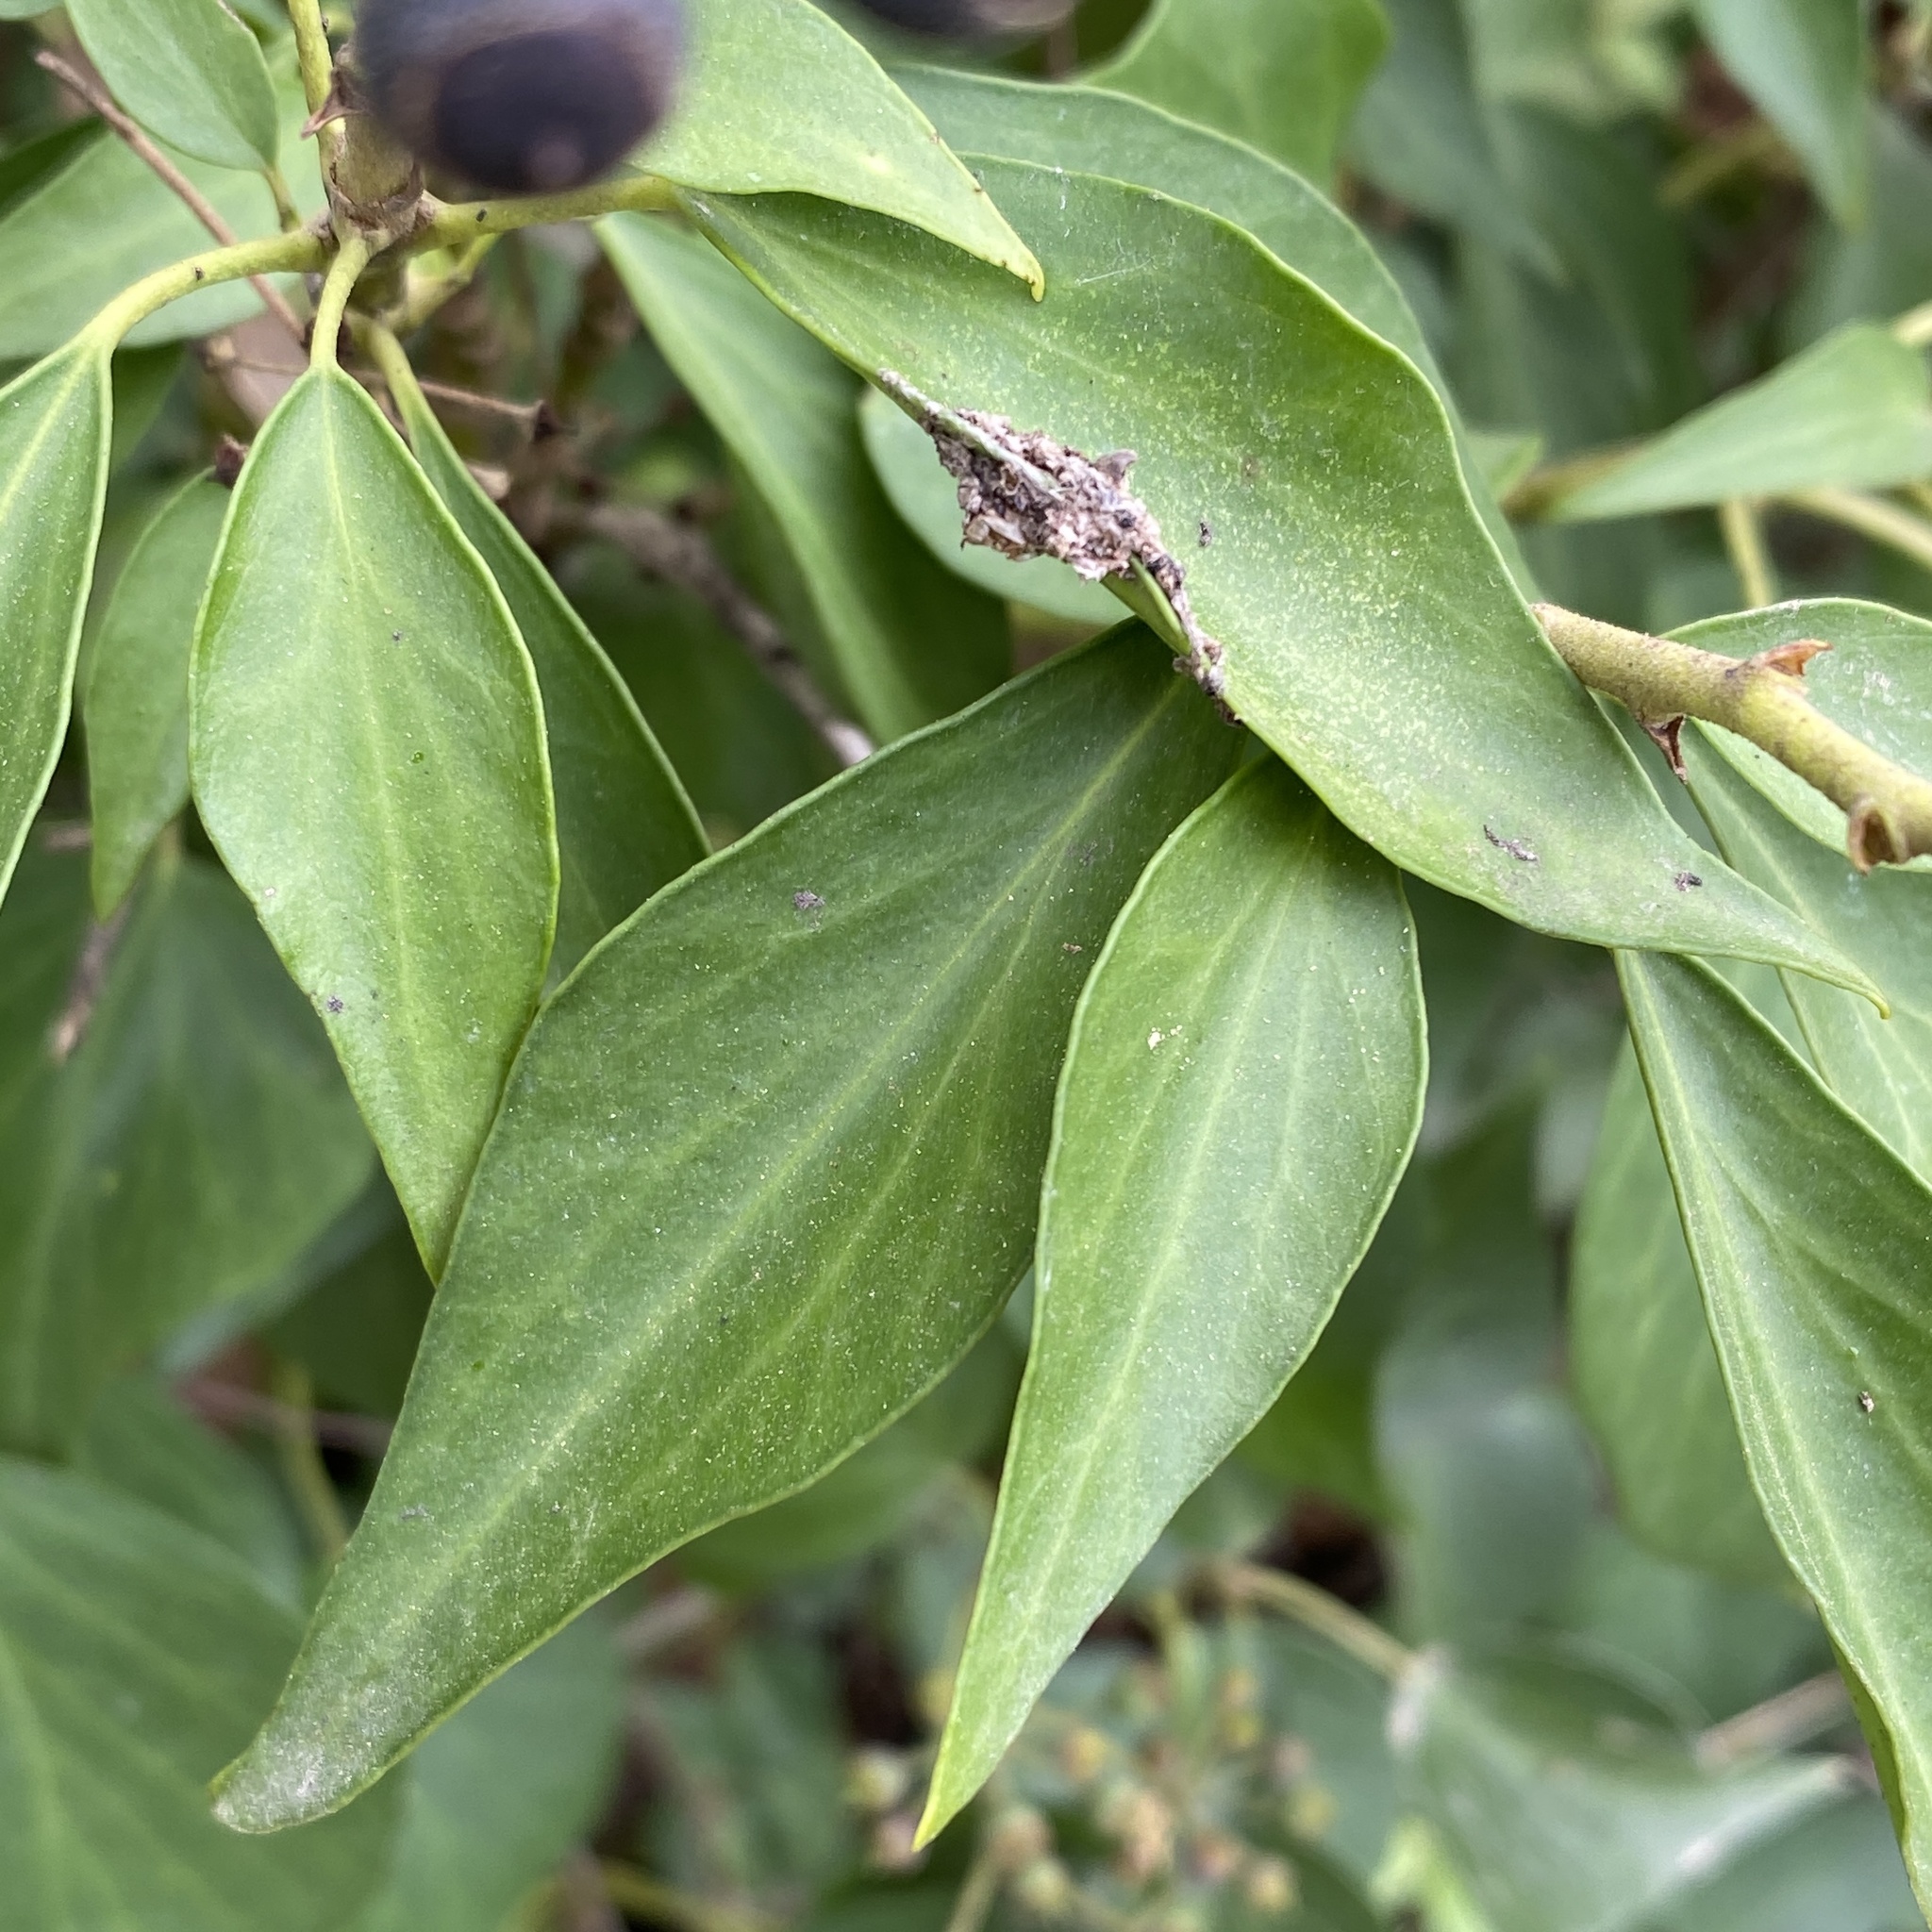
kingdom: Plantae
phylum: Tracheophyta
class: Magnoliopsida
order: Apiales
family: Araliaceae
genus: Hedera
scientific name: Hedera helix
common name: Ivy
